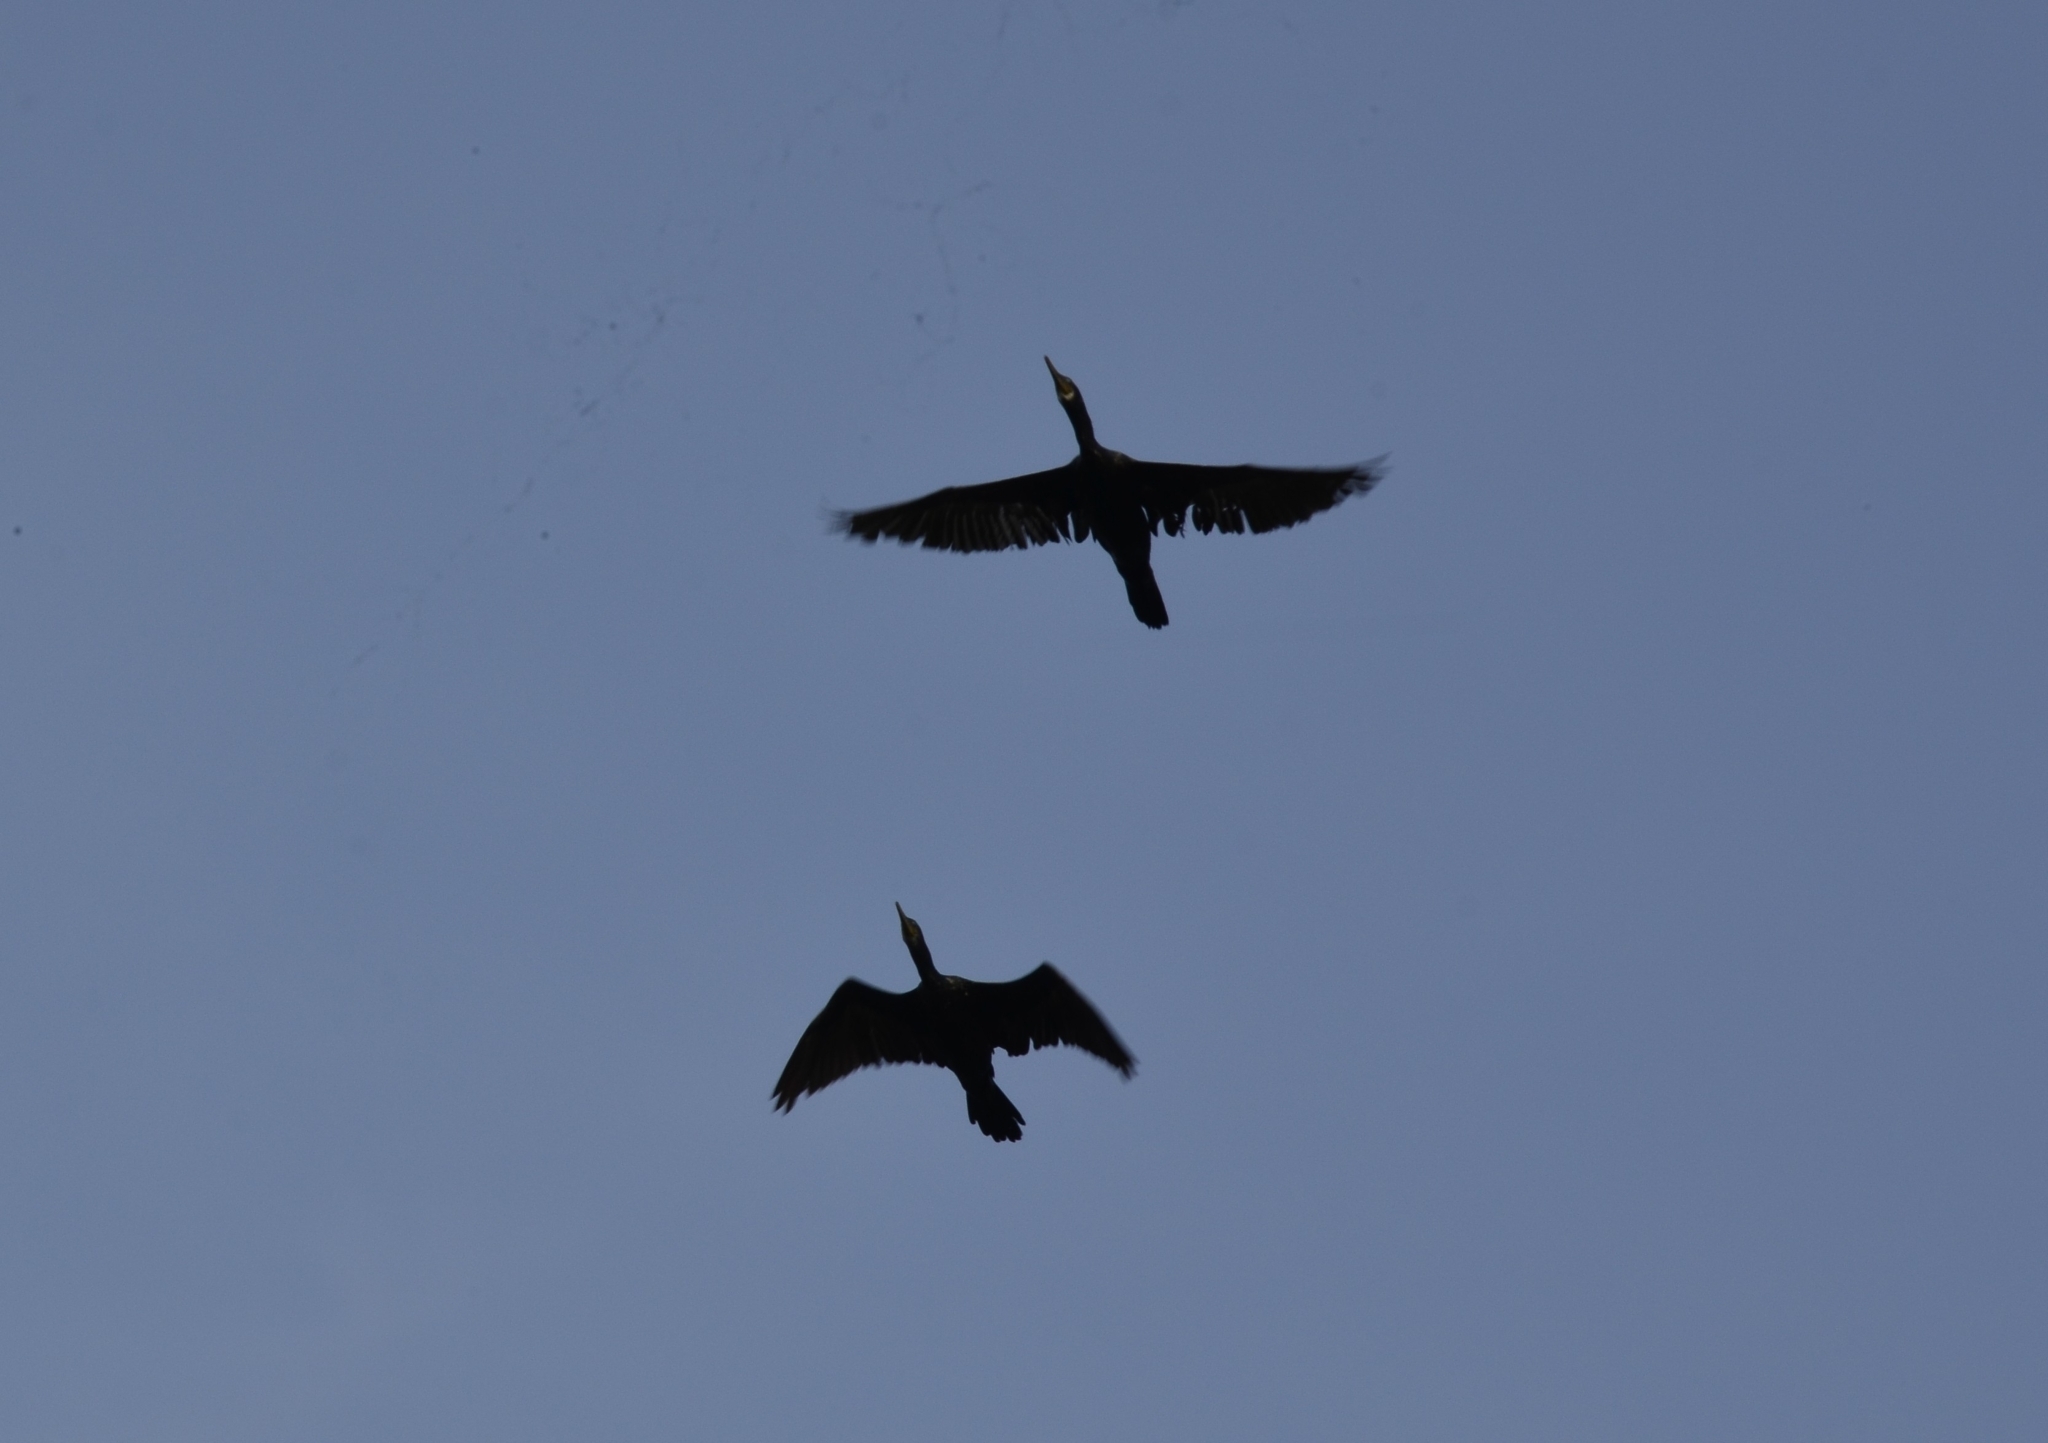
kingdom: Animalia
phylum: Chordata
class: Aves
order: Suliformes
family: Phalacrocoracidae
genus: Phalacrocorax
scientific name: Phalacrocorax fuscicollis
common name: Indian cormorant
